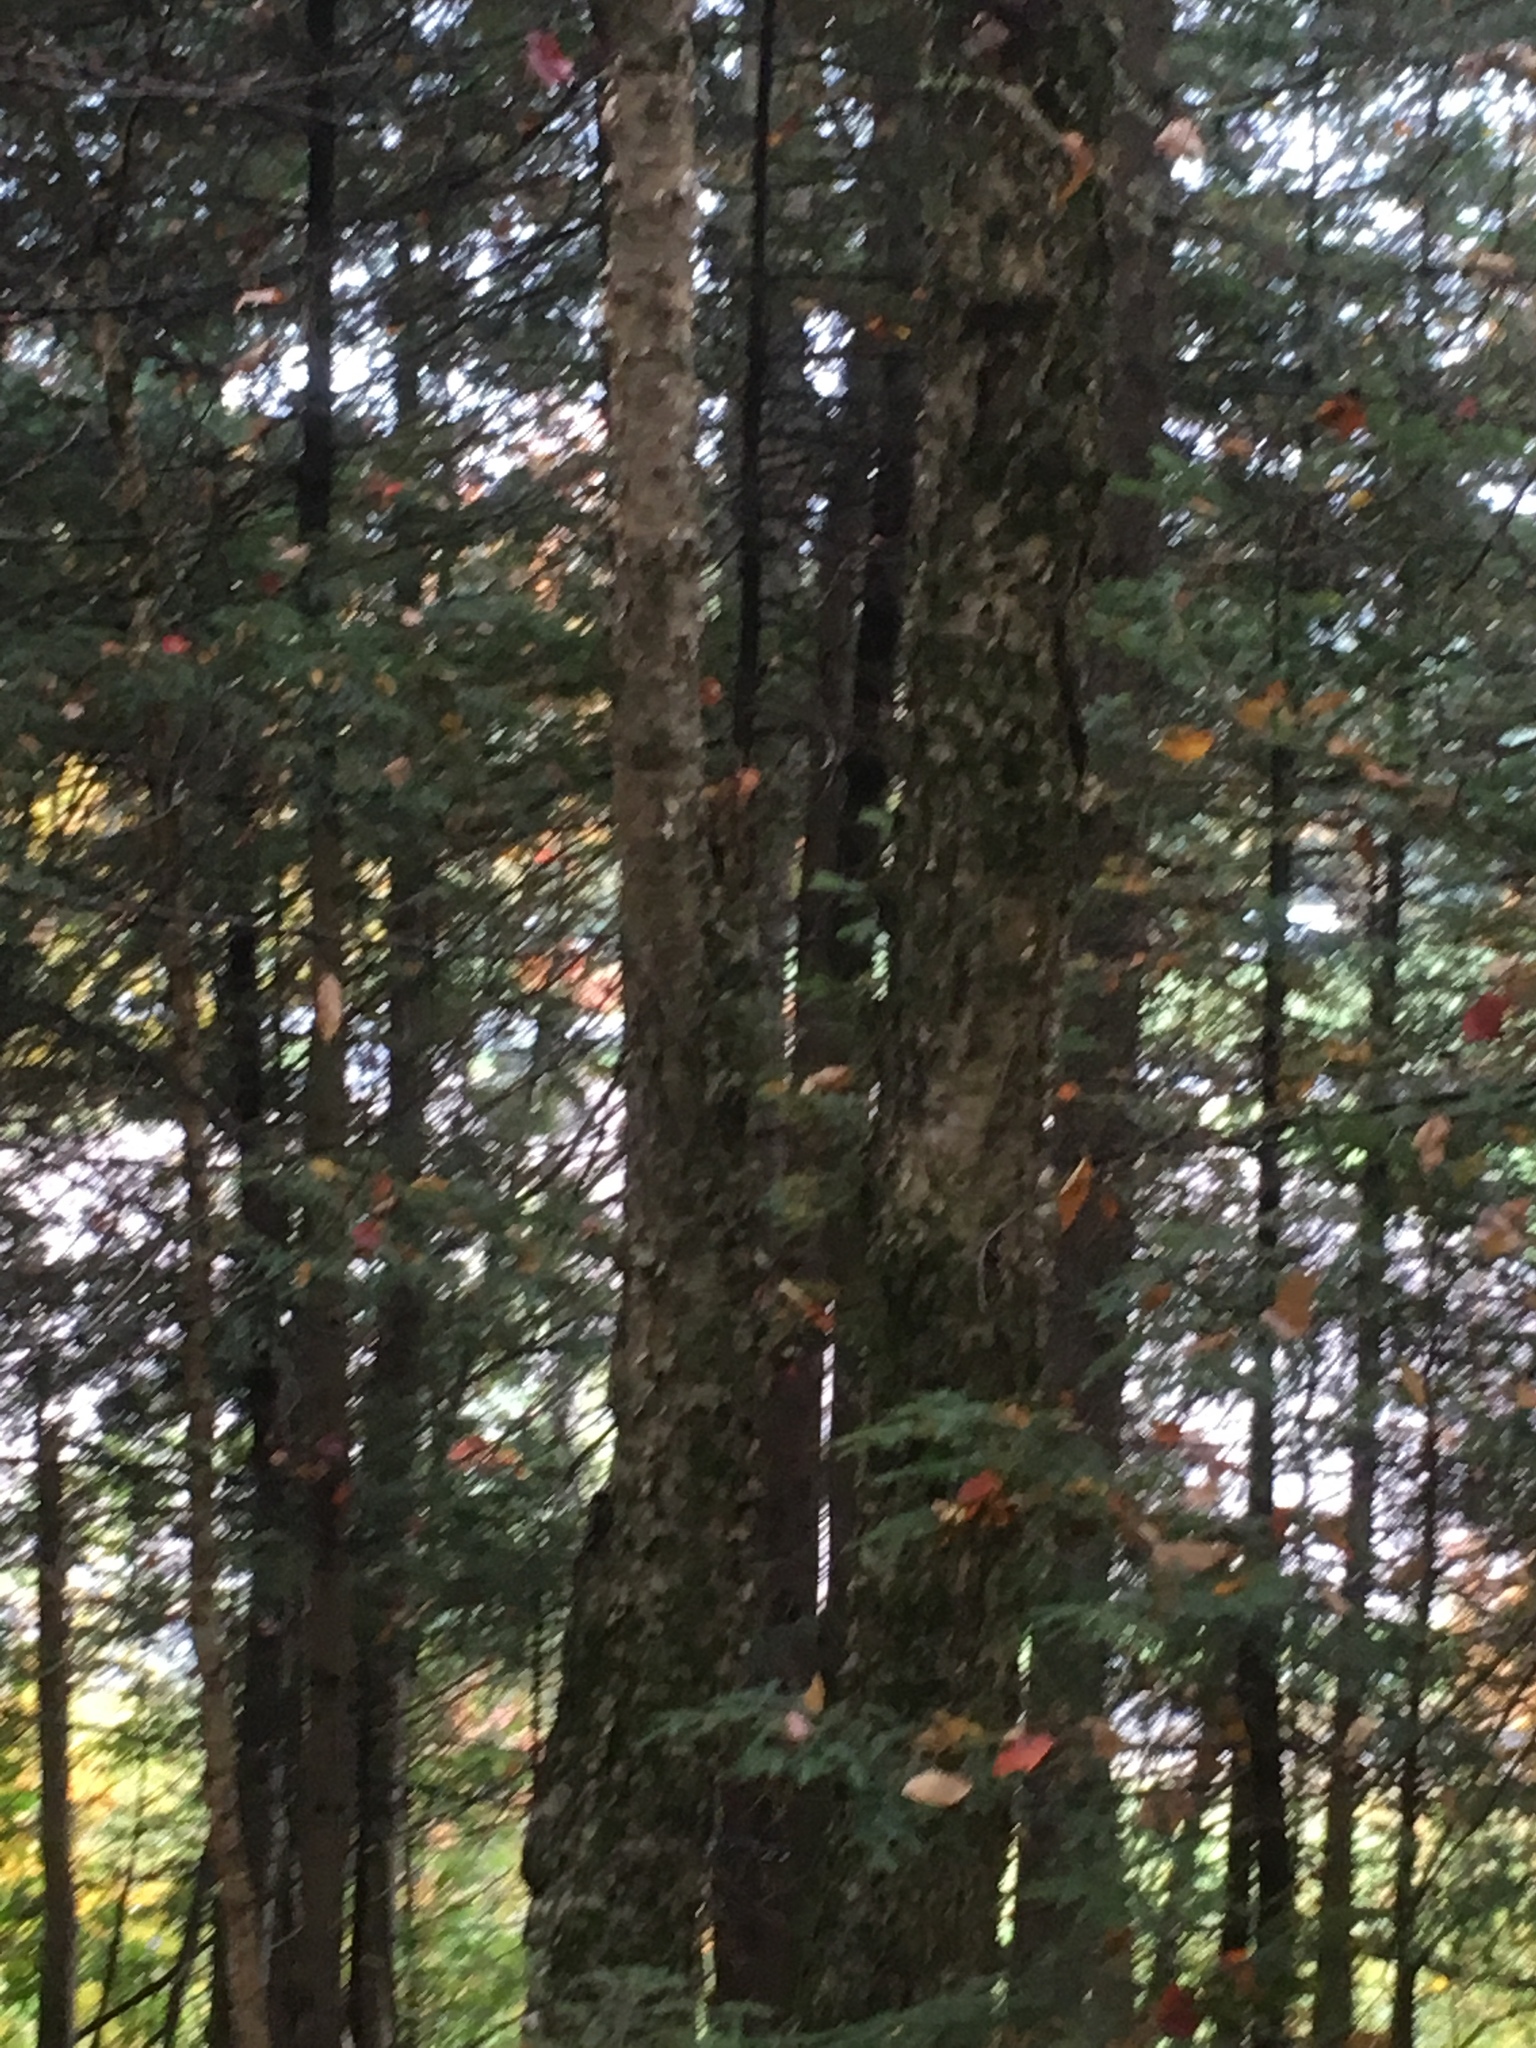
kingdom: Plantae
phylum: Tracheophyta
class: Magnoliopsida
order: Fagales
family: Betulaceae
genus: Betula
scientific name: Betula alleghaniensis
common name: Yellow birch
